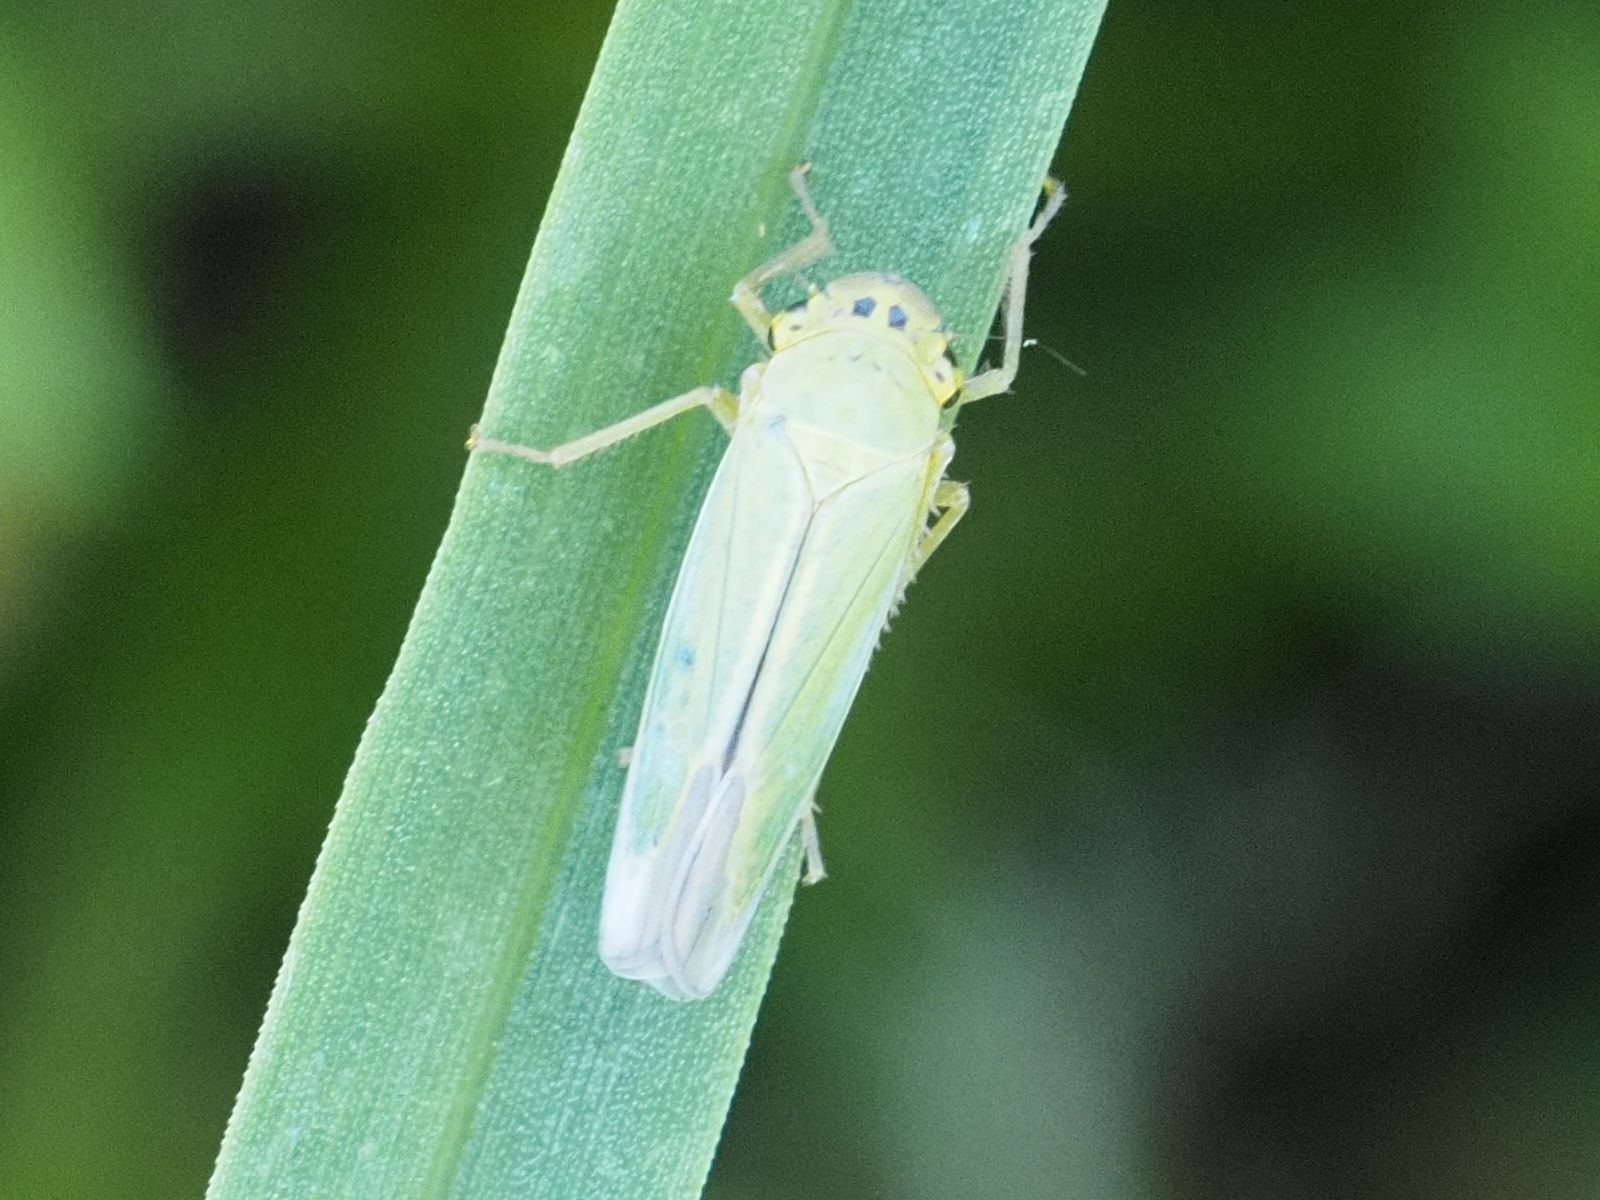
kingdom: Animalia
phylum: Arthropoda
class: Insecta
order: Hemiptera
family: Cicadellidae
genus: Cicadella
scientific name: Cicadella viridis
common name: Leafhopper
